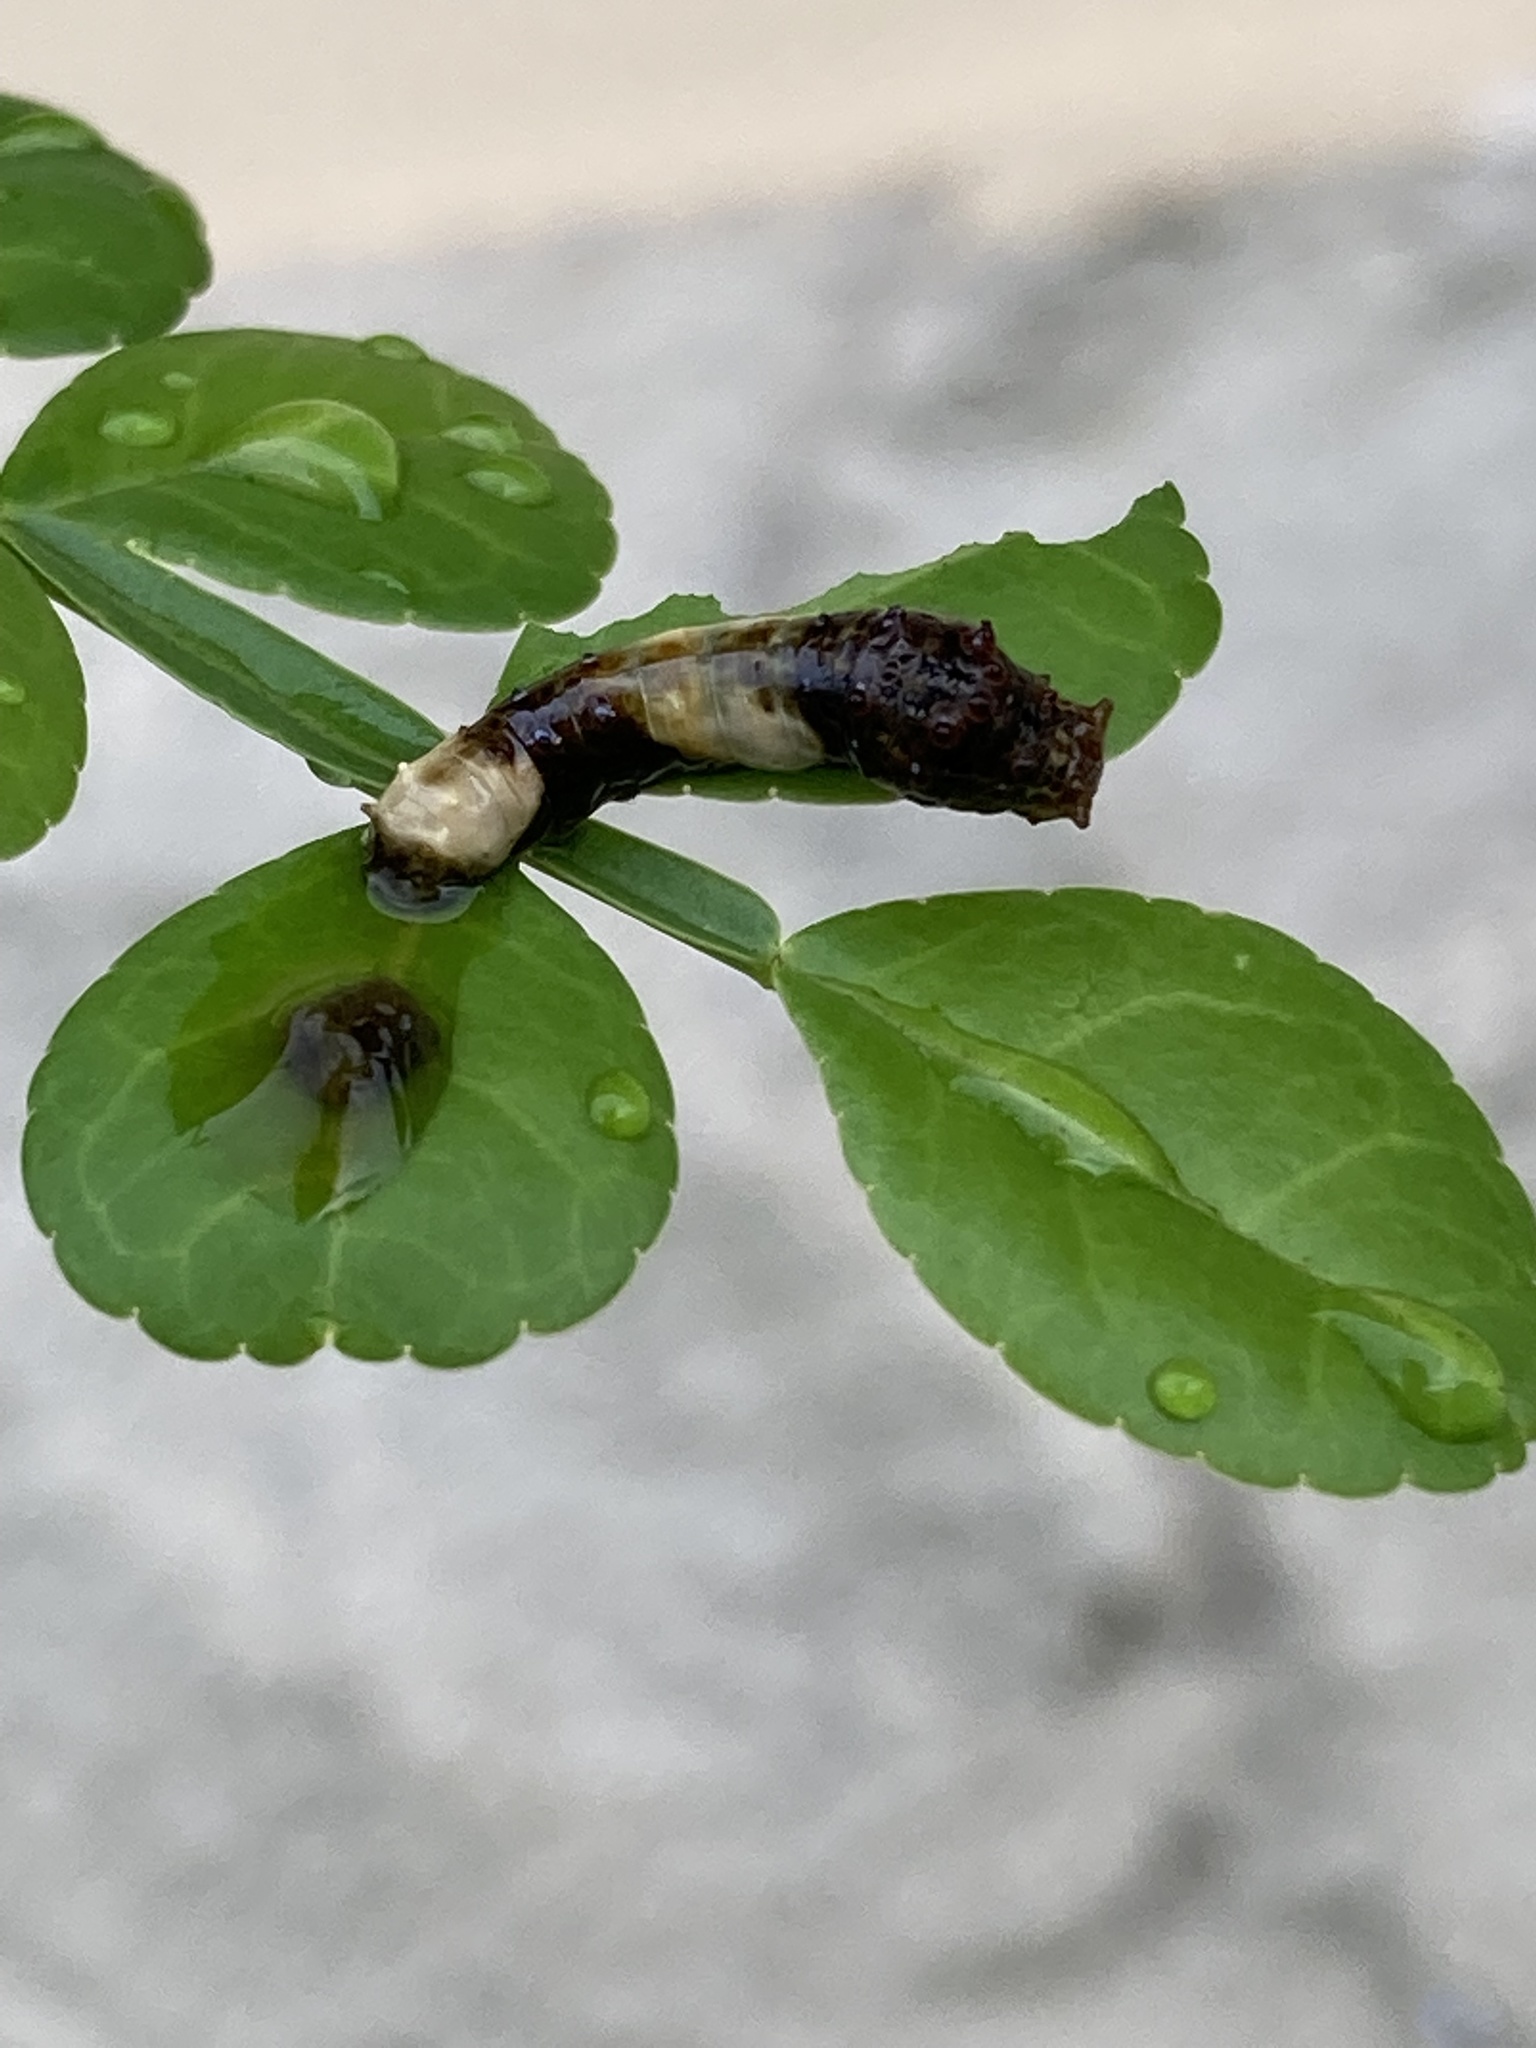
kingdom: Animalia
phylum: Arthropoda
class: Insecta
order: Lepidoptera
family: Papilionidae
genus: Papilio
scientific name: Papilio cresphontes
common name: Giant swallowtail
